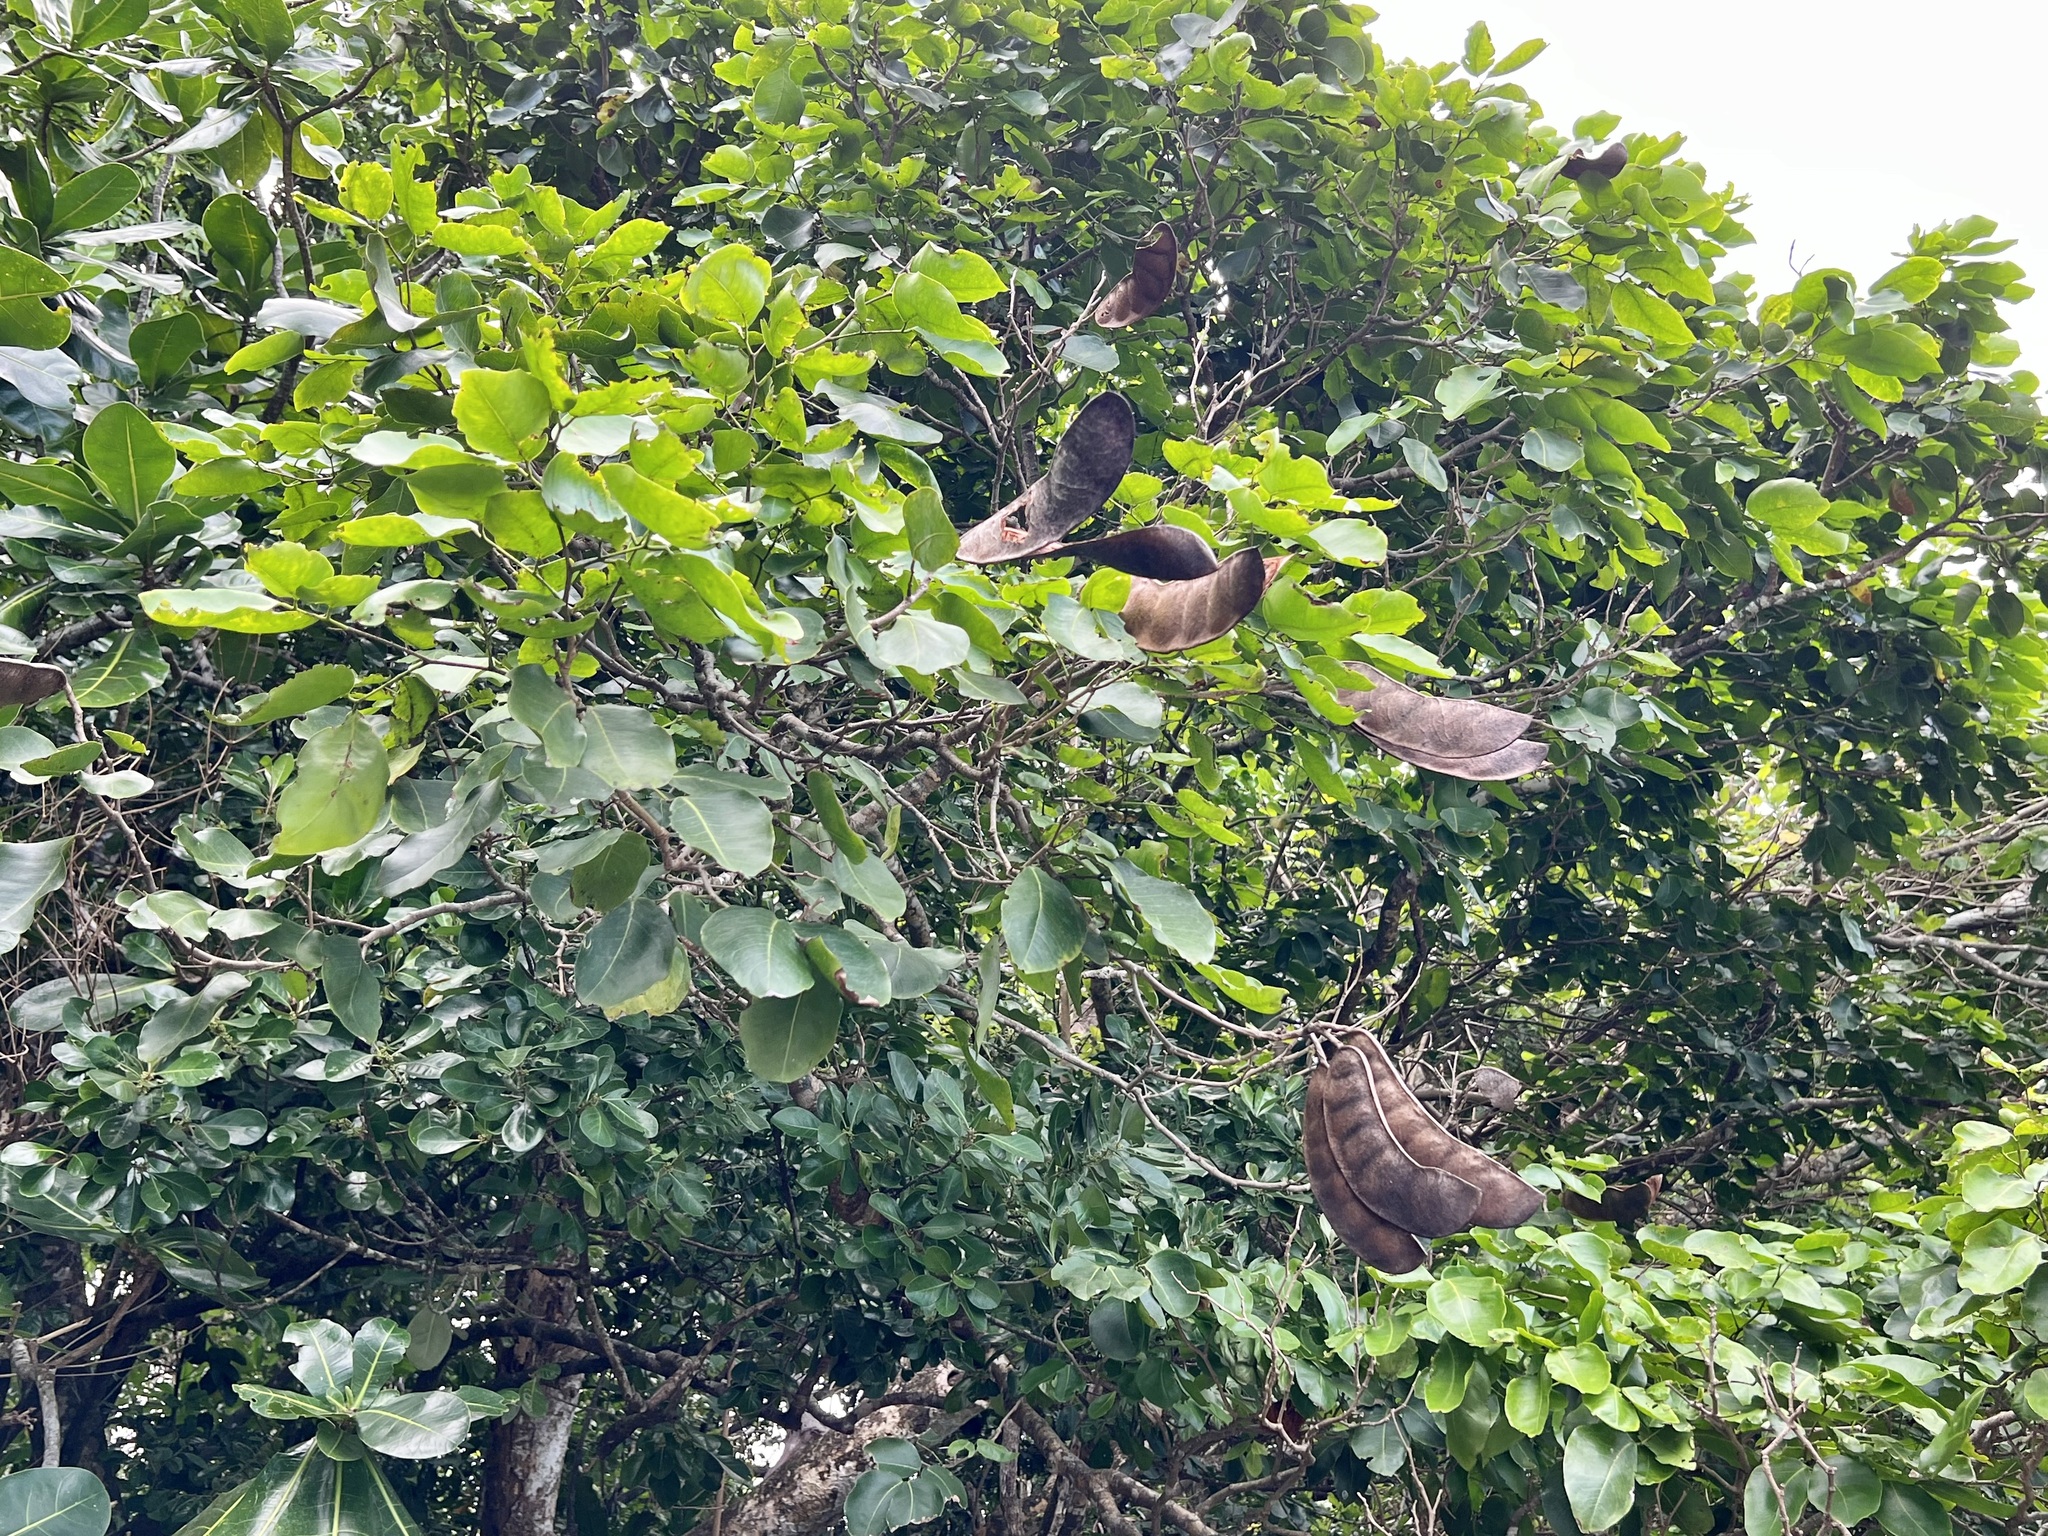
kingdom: Plantae
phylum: Tracheophyta
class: Magnoliopsida
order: Fabales
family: Fabaceae
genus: Intsia
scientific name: Intsia bijuga
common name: Moluccan ironwood
